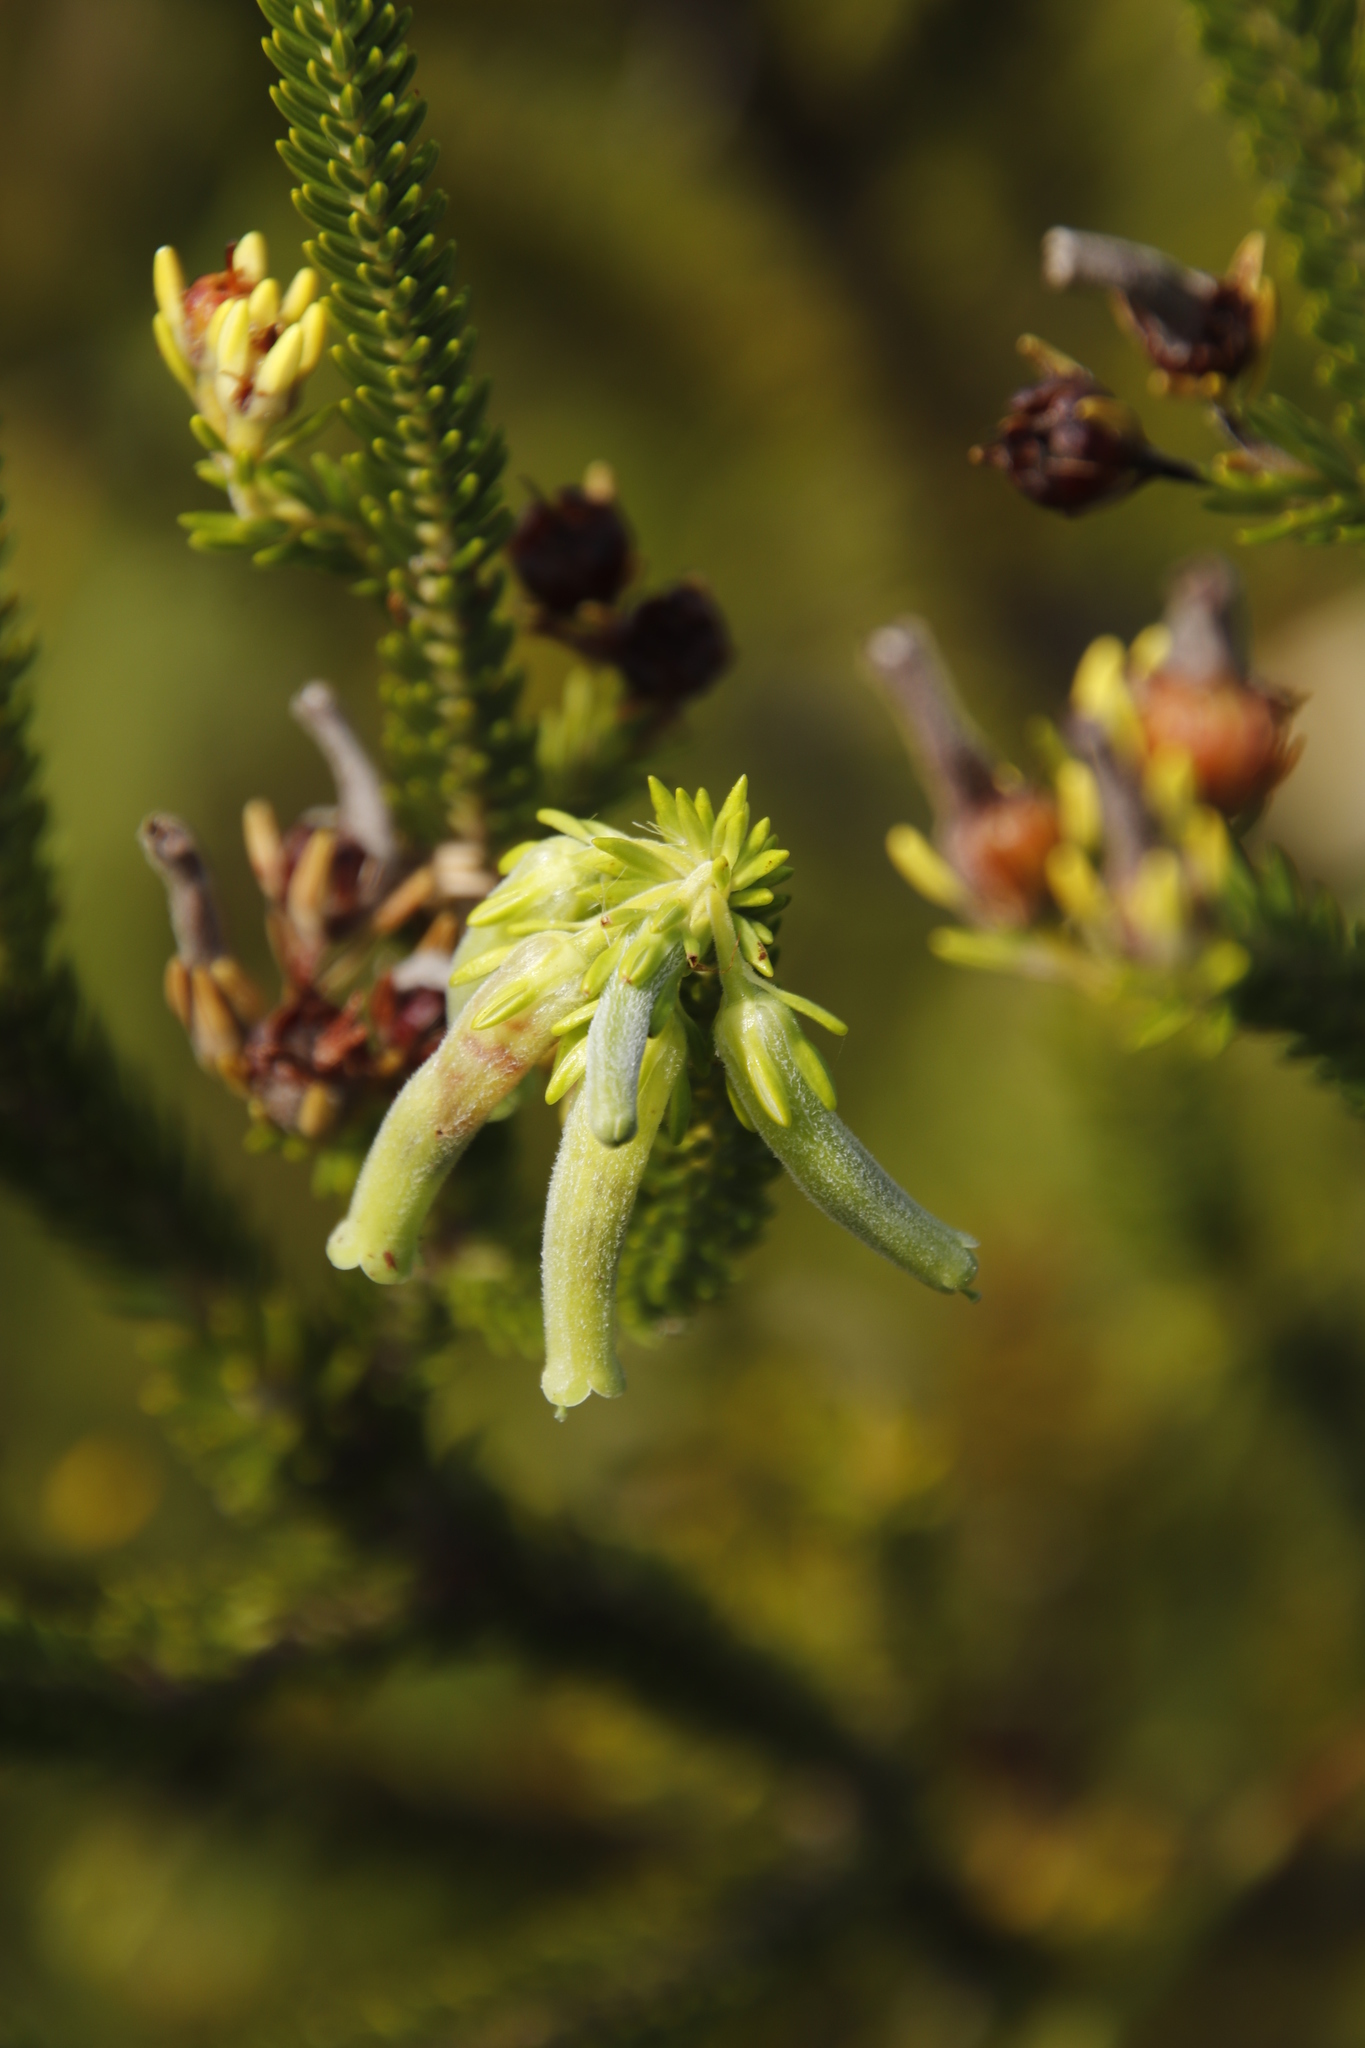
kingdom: Plantae
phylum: Tracheophyta
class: Magnoliopsida
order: Ericales
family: Ericaceae
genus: Erica
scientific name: Erica brachialis
